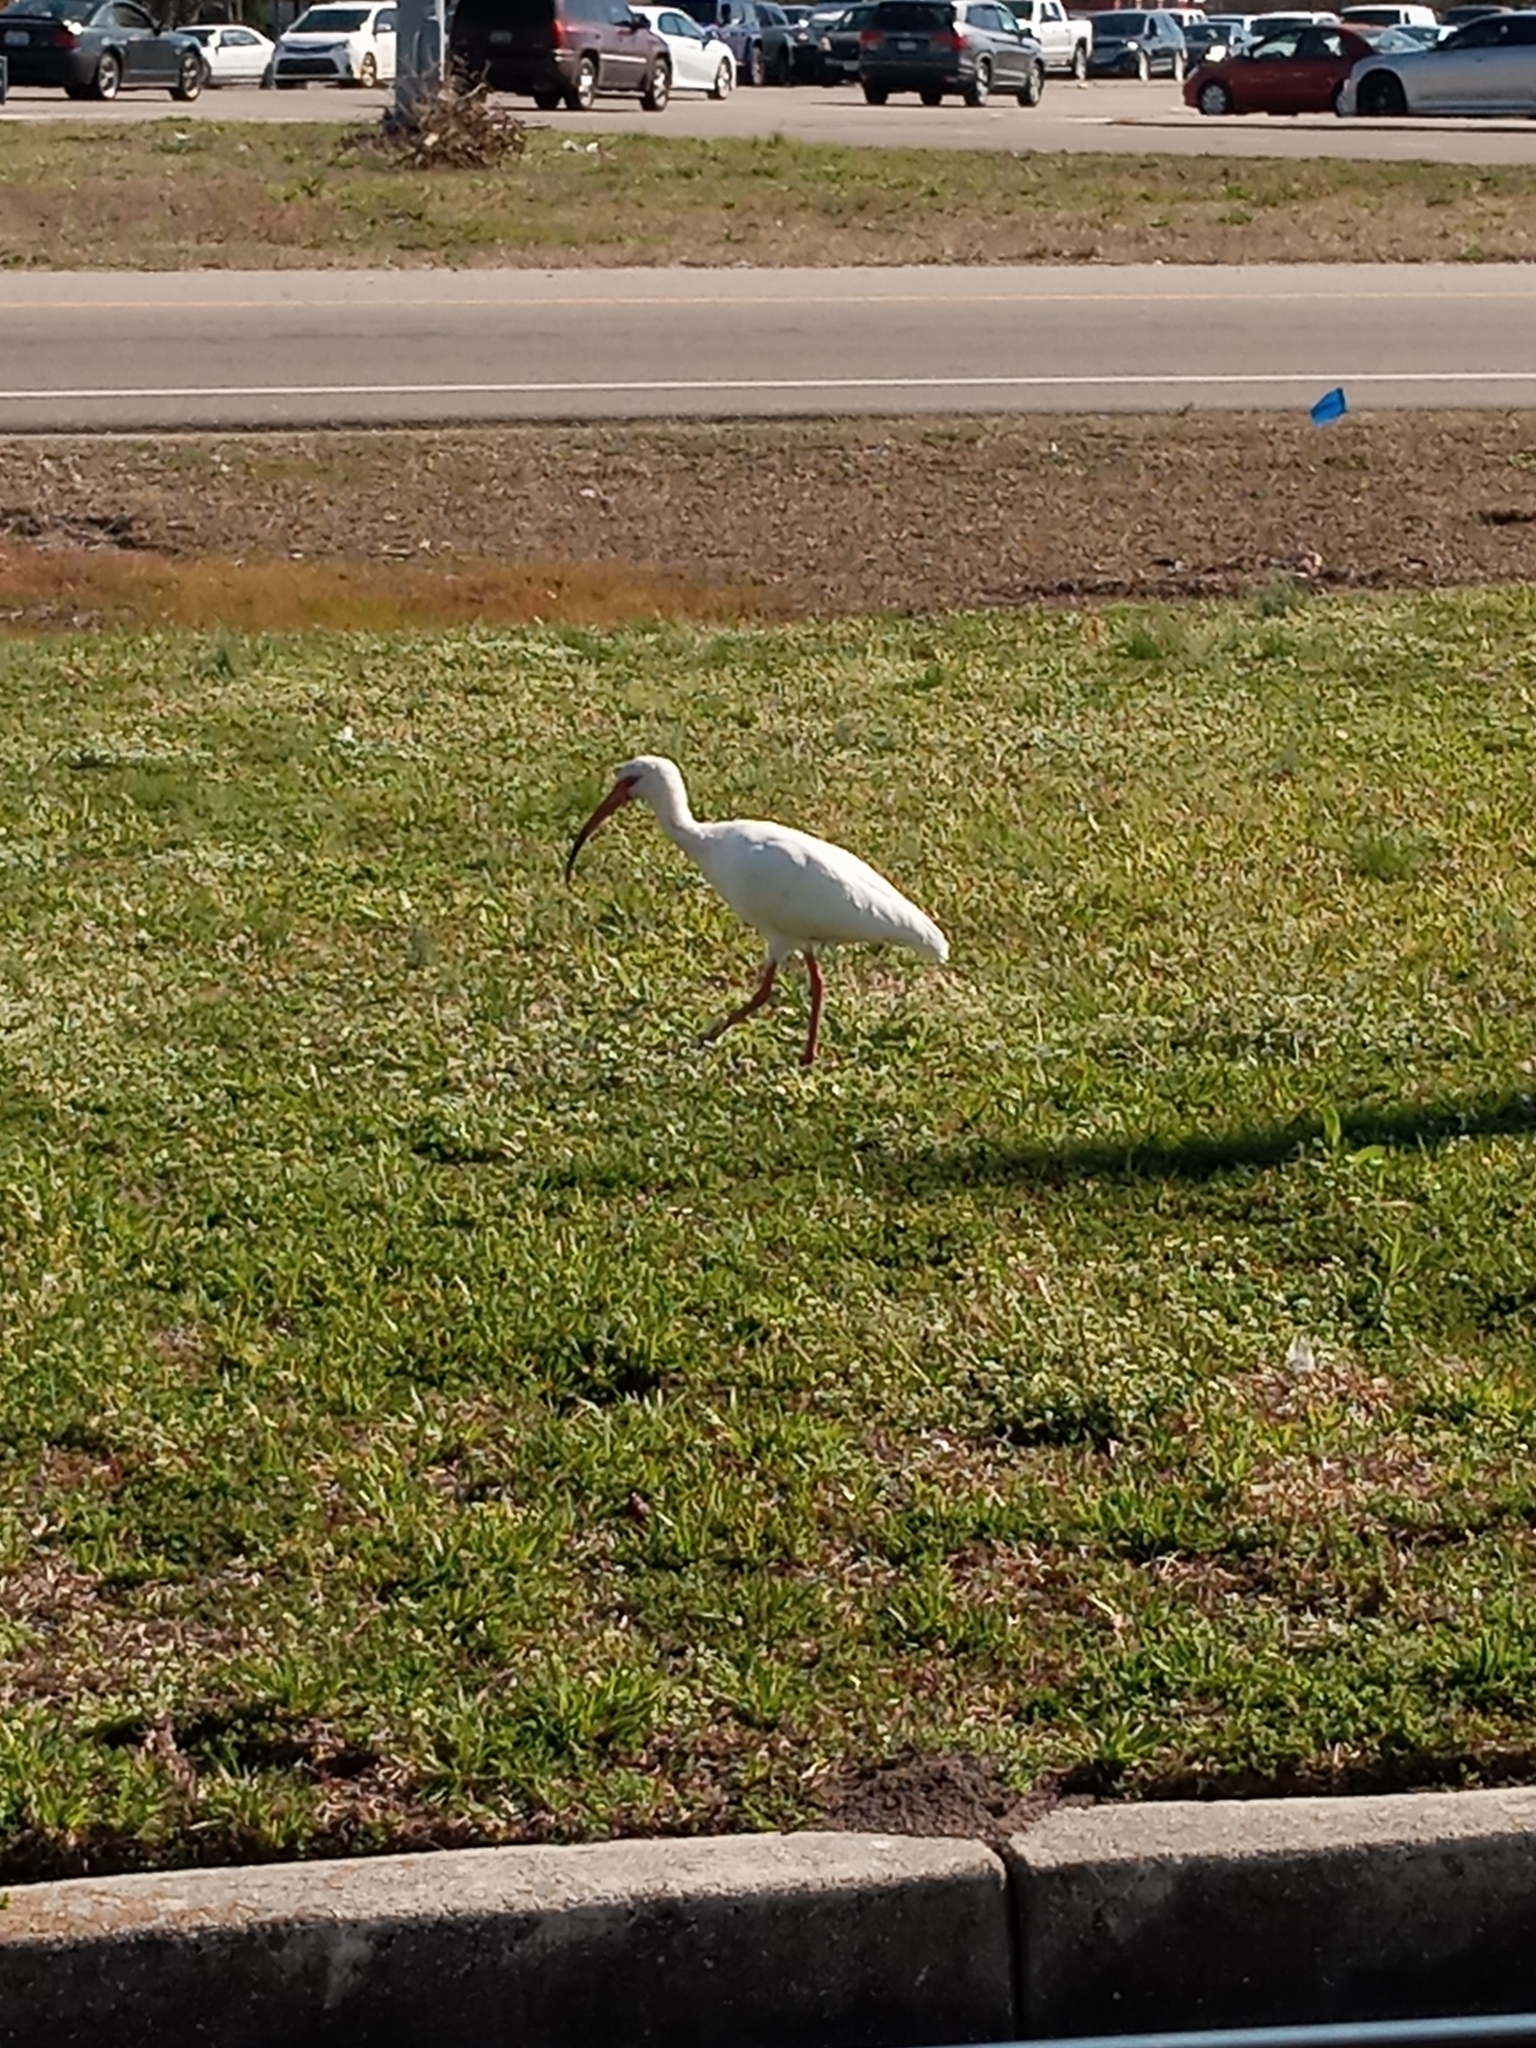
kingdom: Animalia
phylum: Chordata
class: Aves
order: Pelecaniformes
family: Threskiornithidae
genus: Eudocimus
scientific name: Eudocimus albus
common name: White ibis
